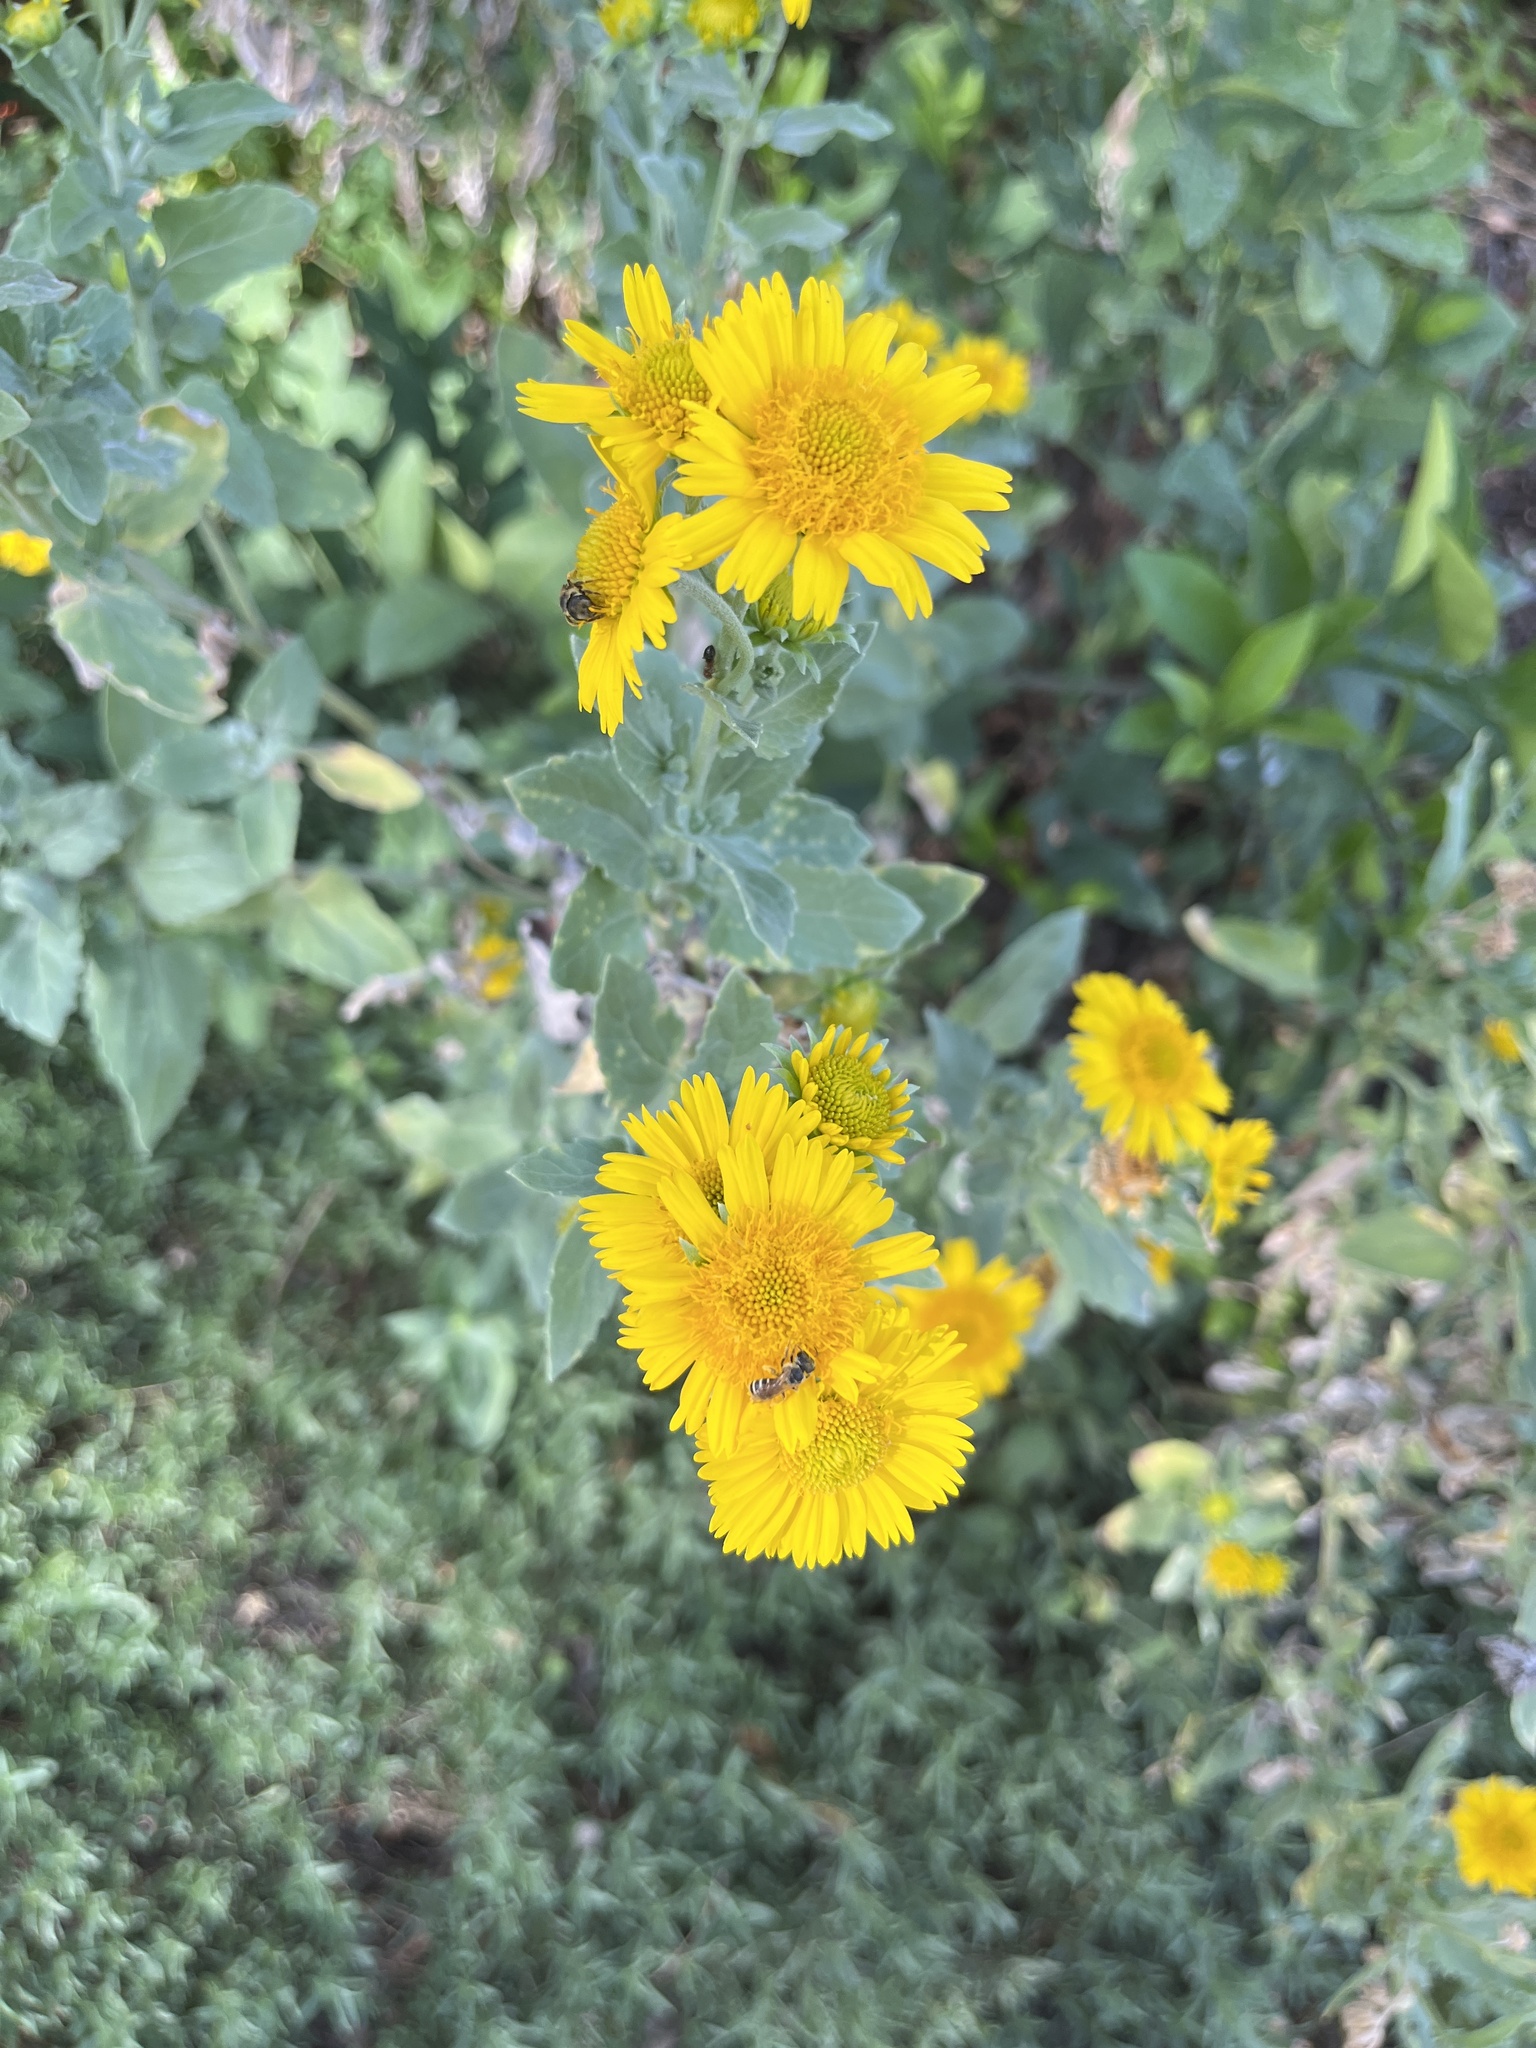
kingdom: Plantae
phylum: Tracheophyta
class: Magnoliopsida
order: Asterales
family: Asteraceae
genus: Verbesina
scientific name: Verbesina encelioides
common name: Golden crownbeard
